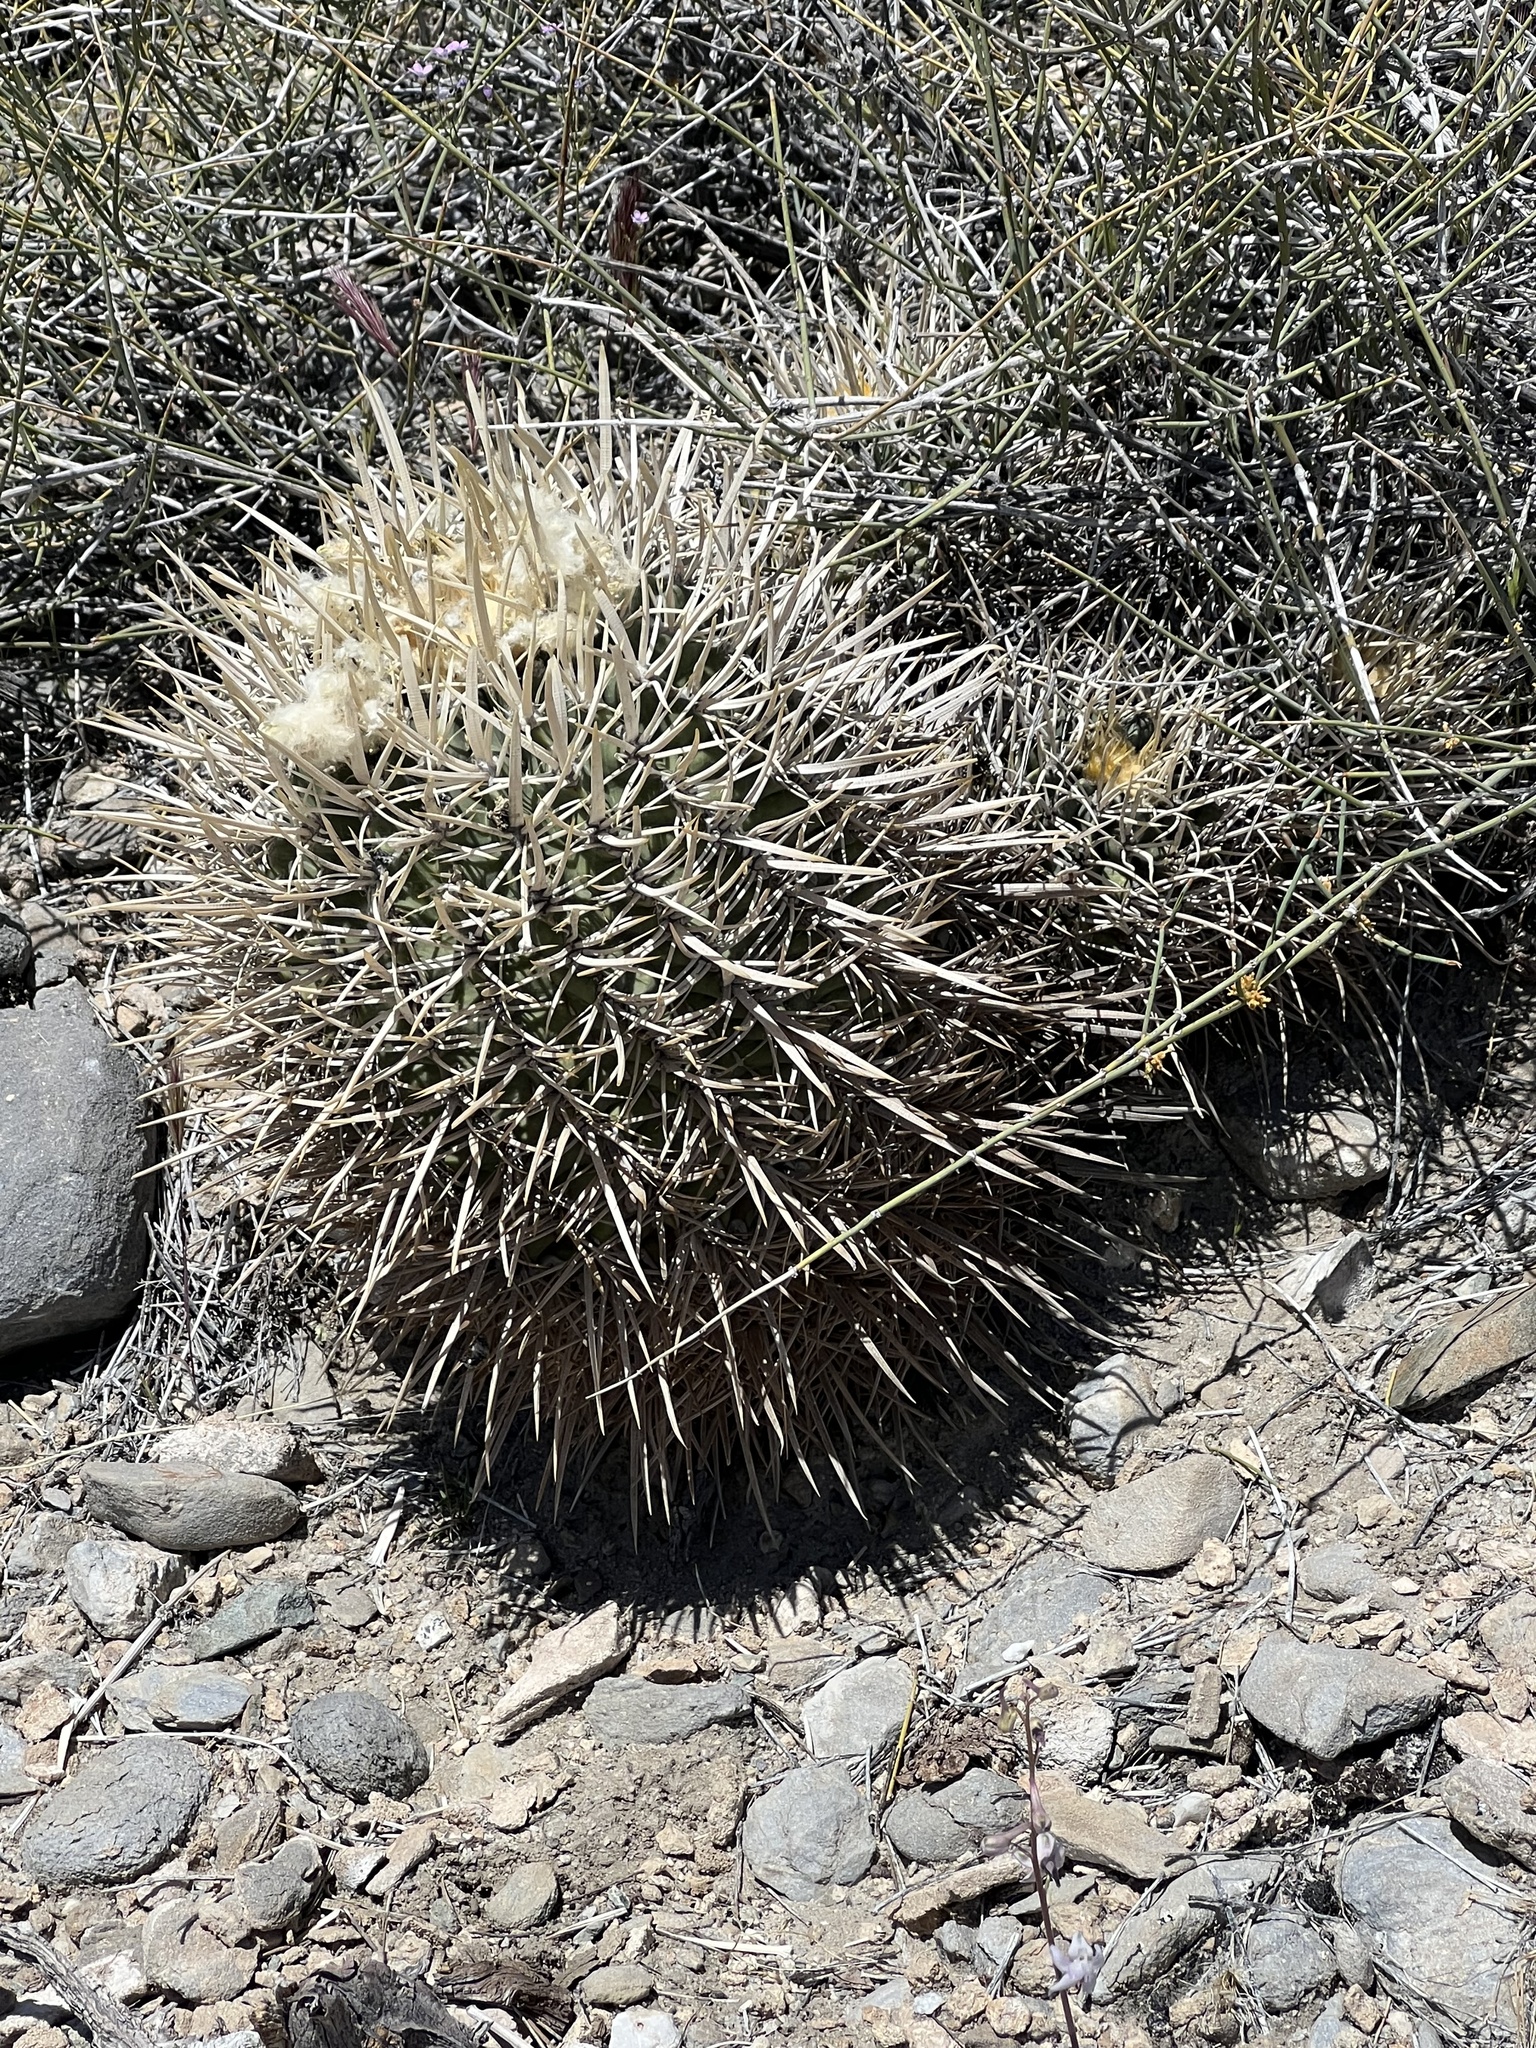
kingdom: Plantae
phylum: Tracheophyta
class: Magnoliopsida
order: Caryophyllales
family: Cactaceae
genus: Echinocactus
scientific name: Echinocactus polycephalus
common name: Cottontop cactus
